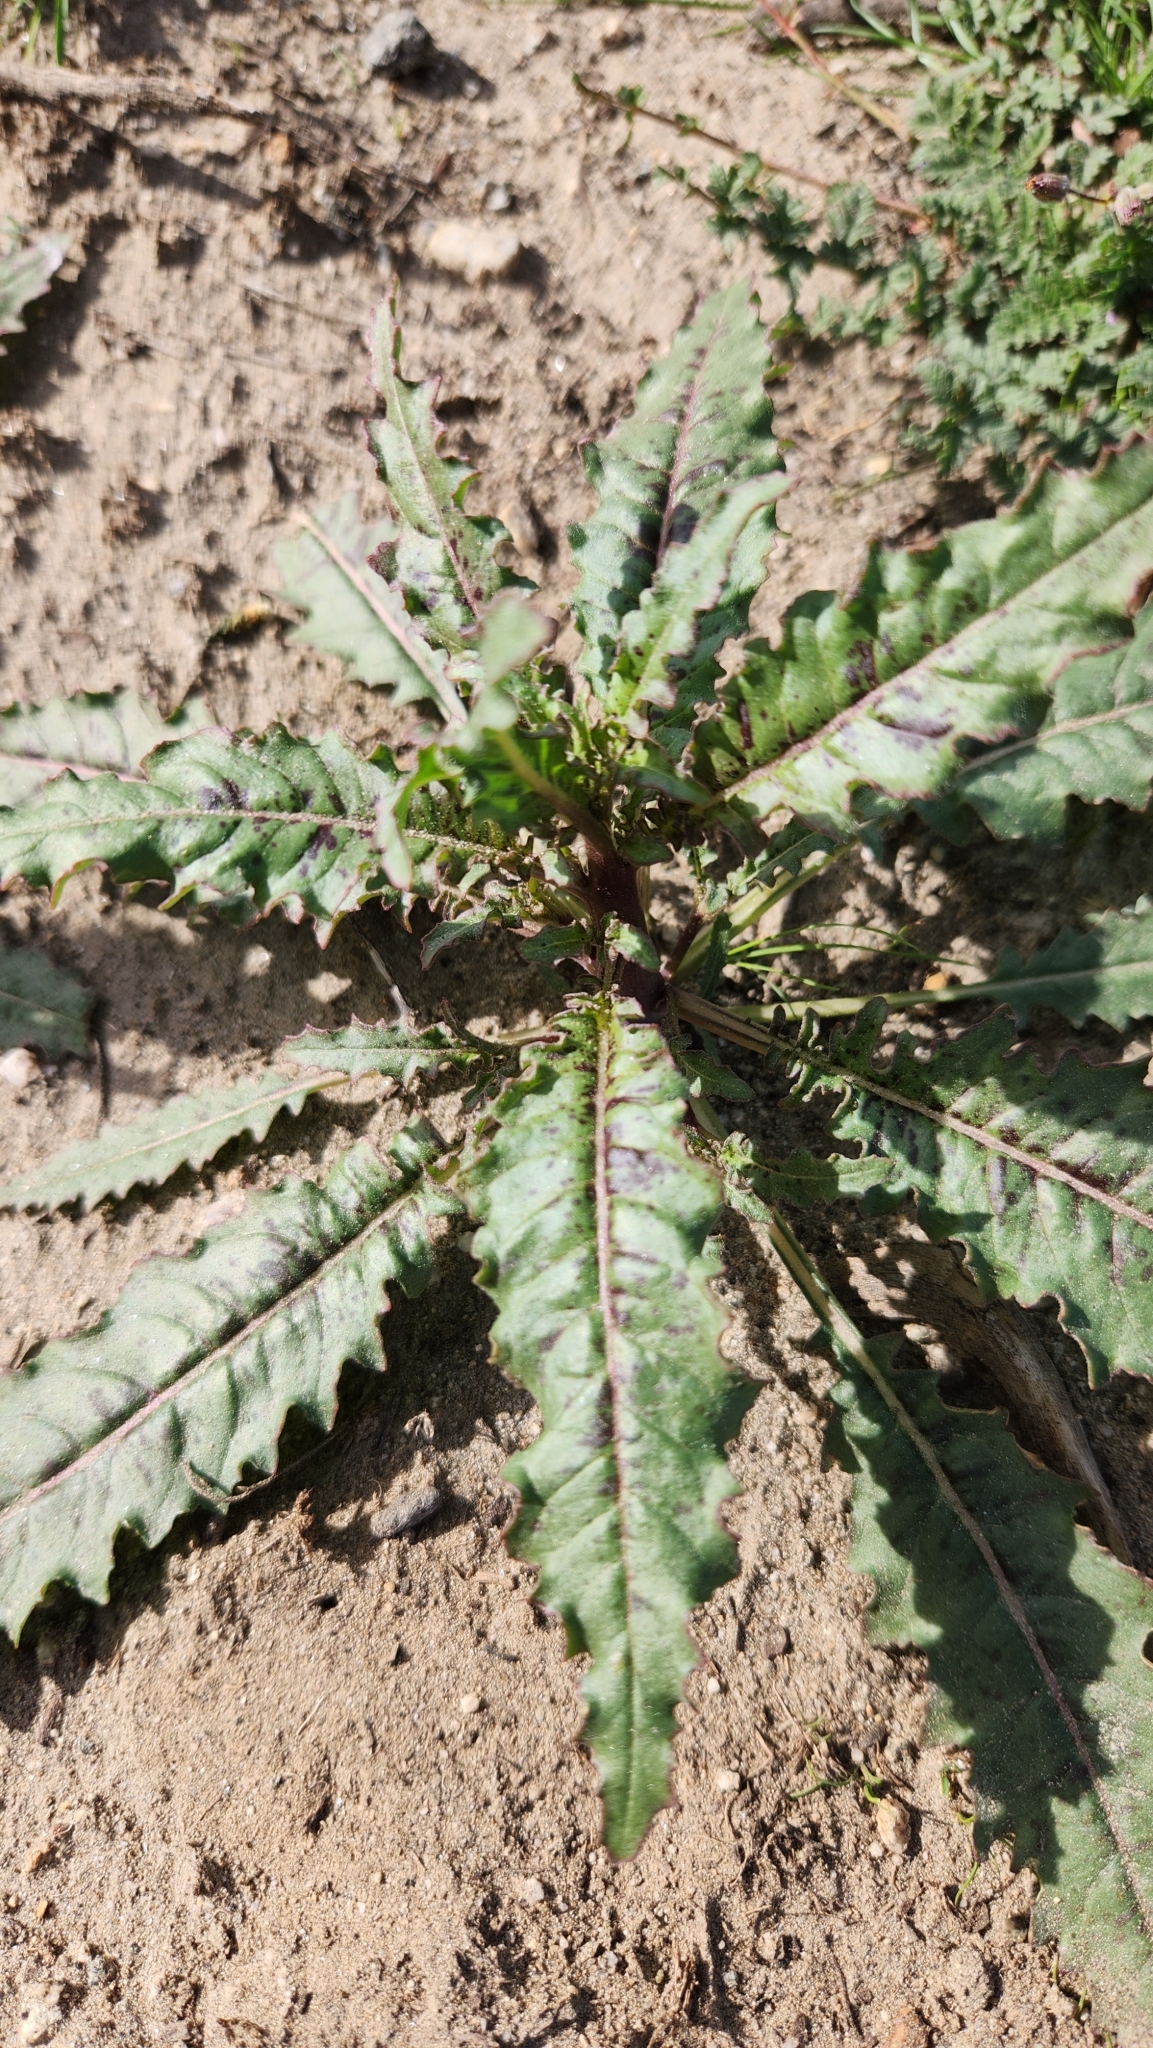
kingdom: Plantae
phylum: Tracheophyta
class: Magnoliopsida
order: Myrtales
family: Onagraceae
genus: Eulobus
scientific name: Eulobus californicus
